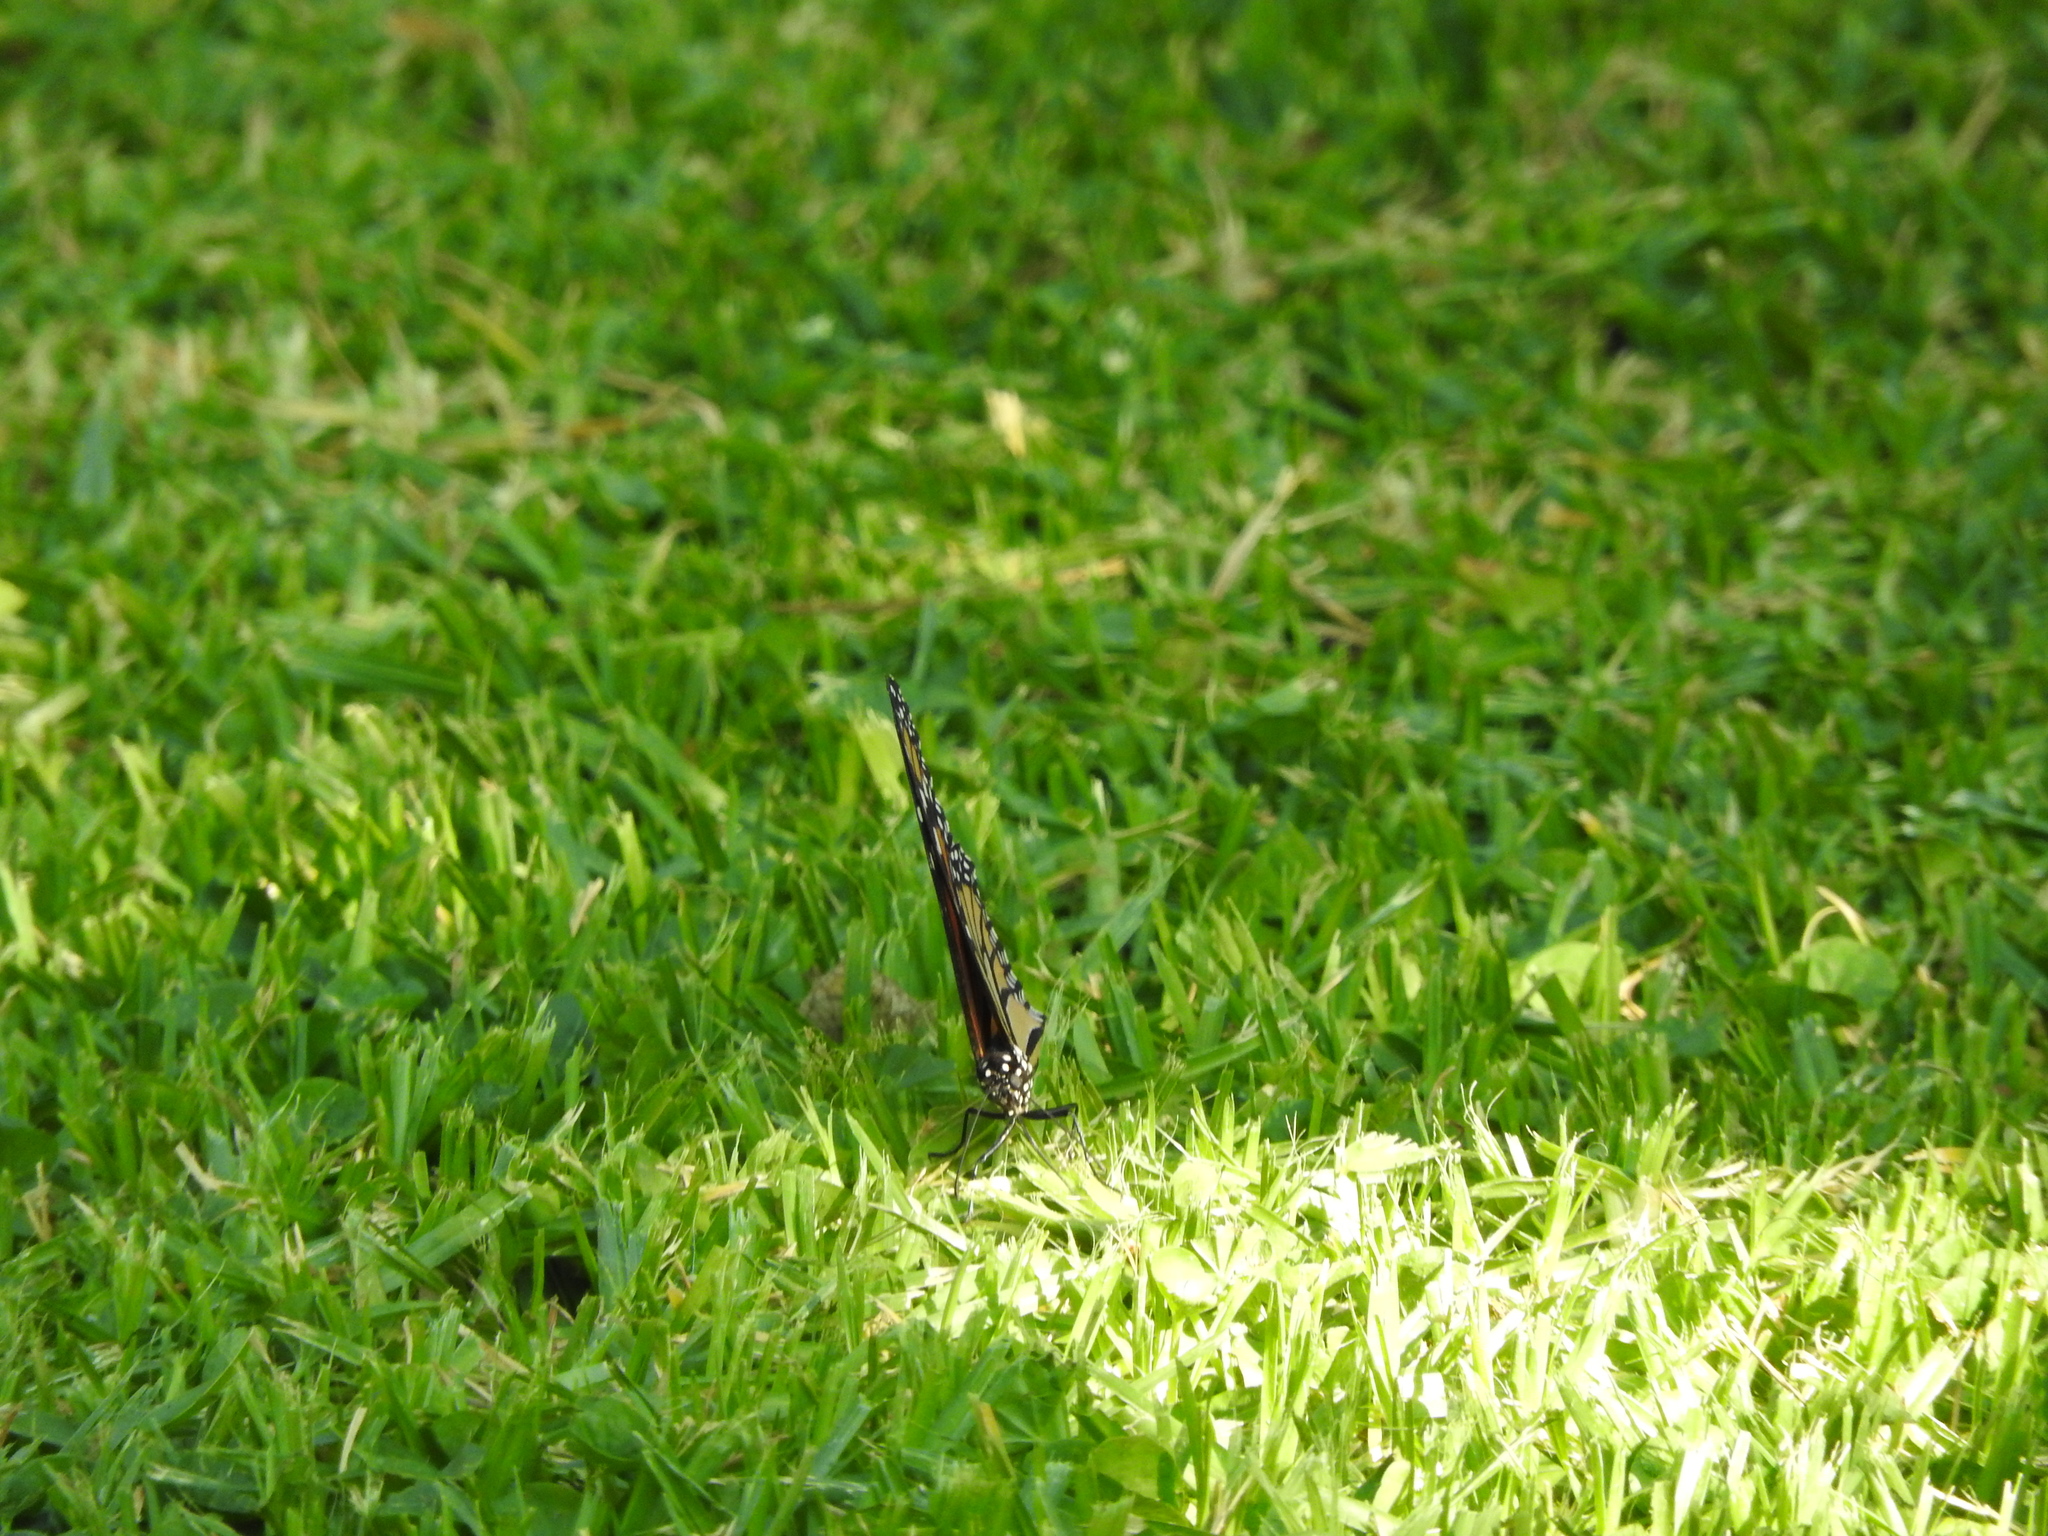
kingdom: Animalia
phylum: Arthropoda
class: Insecta
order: Lepidoptera
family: Nymphalidae
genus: Danaus
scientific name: Danaus plexippus
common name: Monarch
